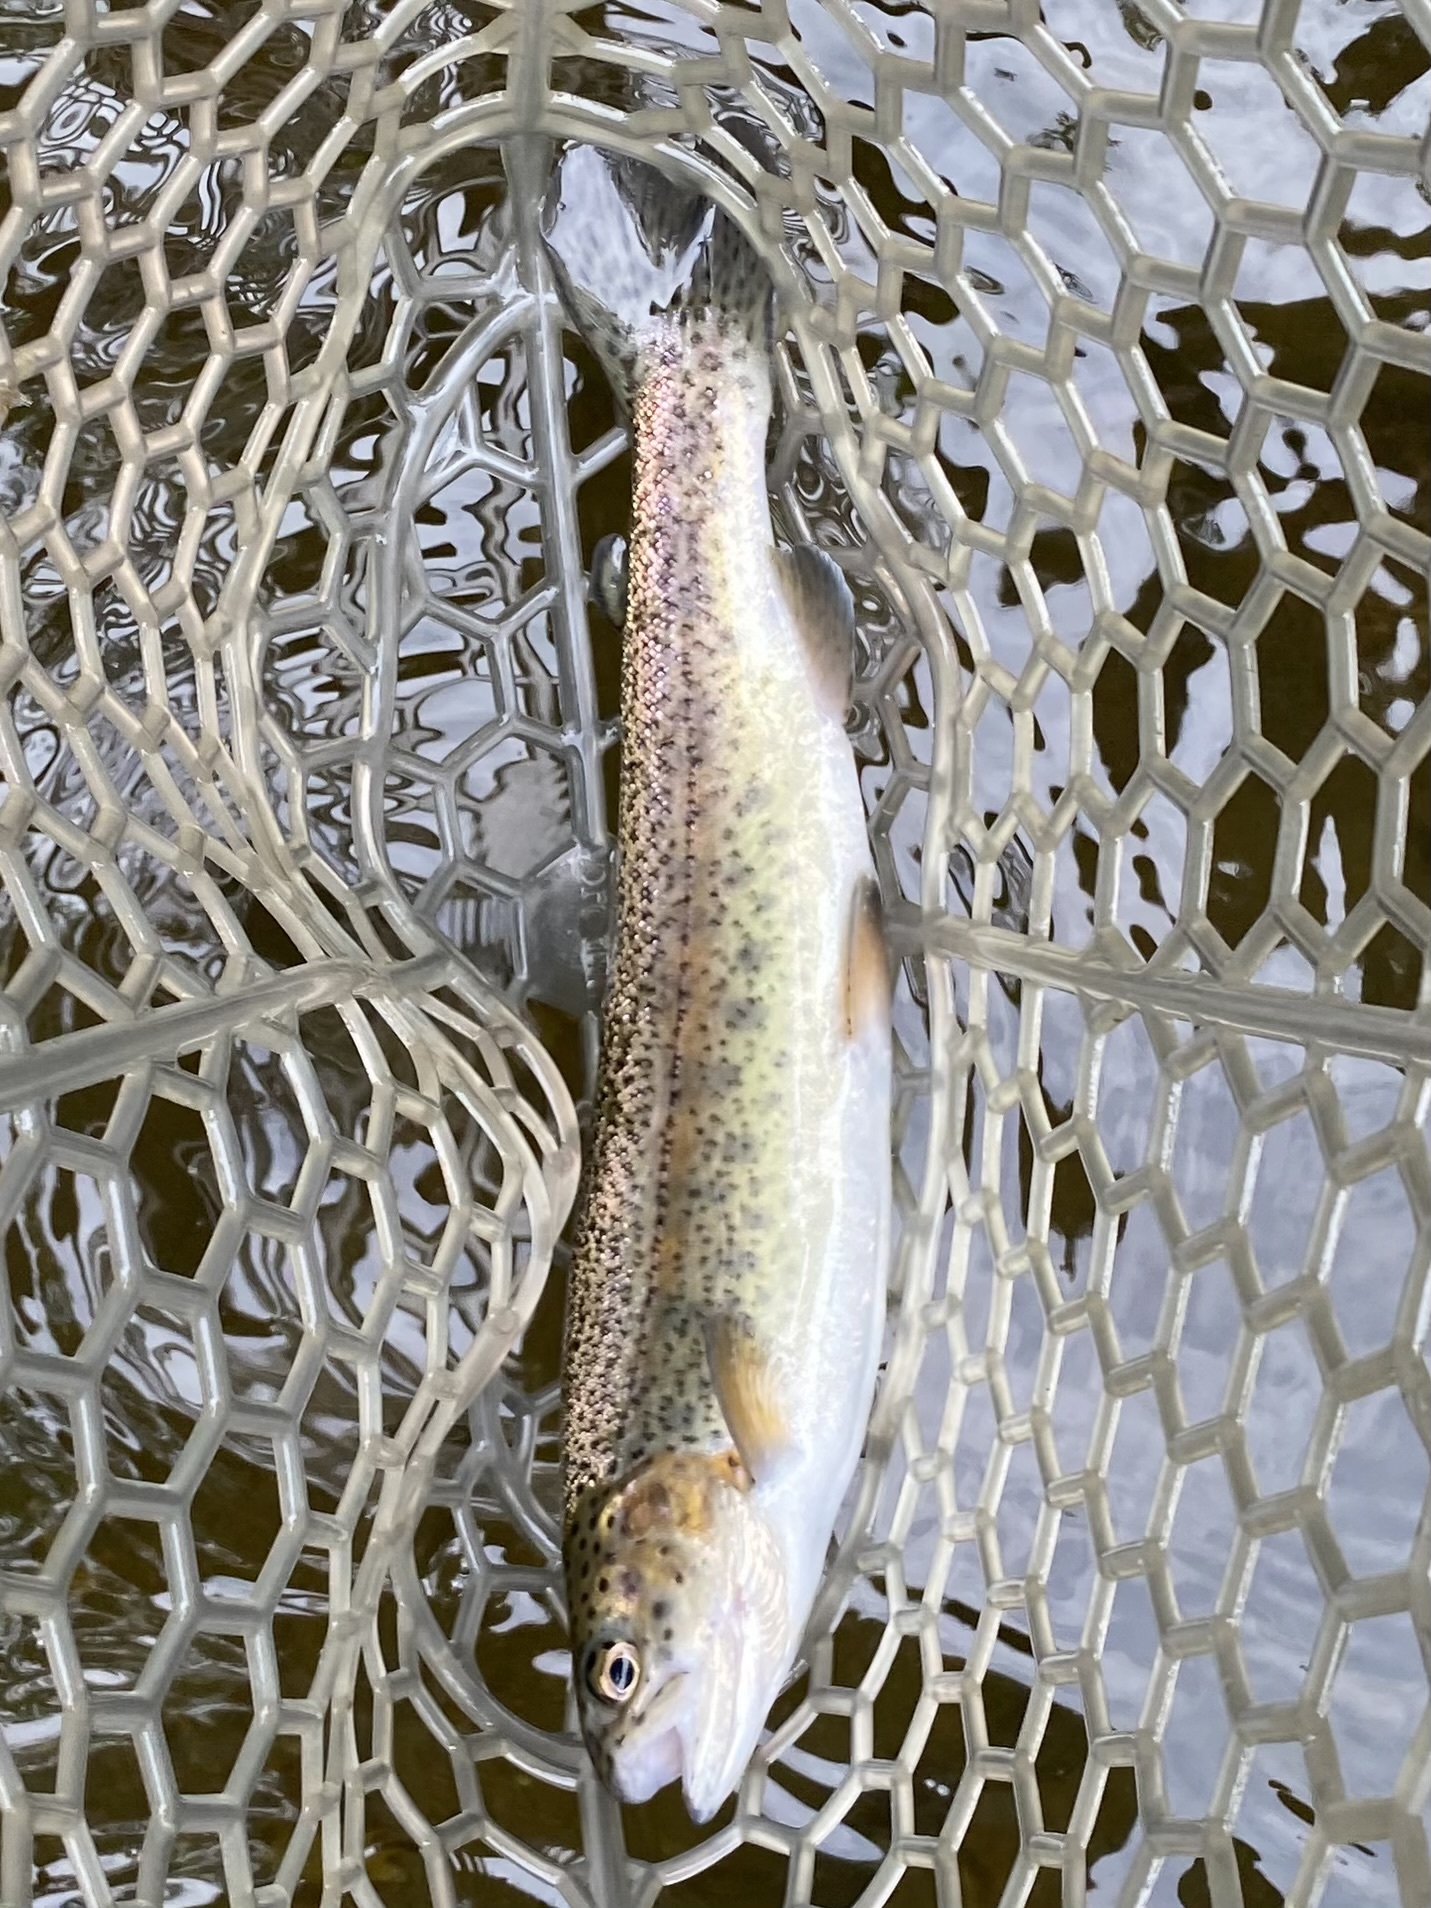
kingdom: Animalia
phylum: Chordata
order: Salmoniformes
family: Salmonidae
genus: Oncorhynchus
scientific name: Oncorhynchus mykiss
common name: Rainbow trout
